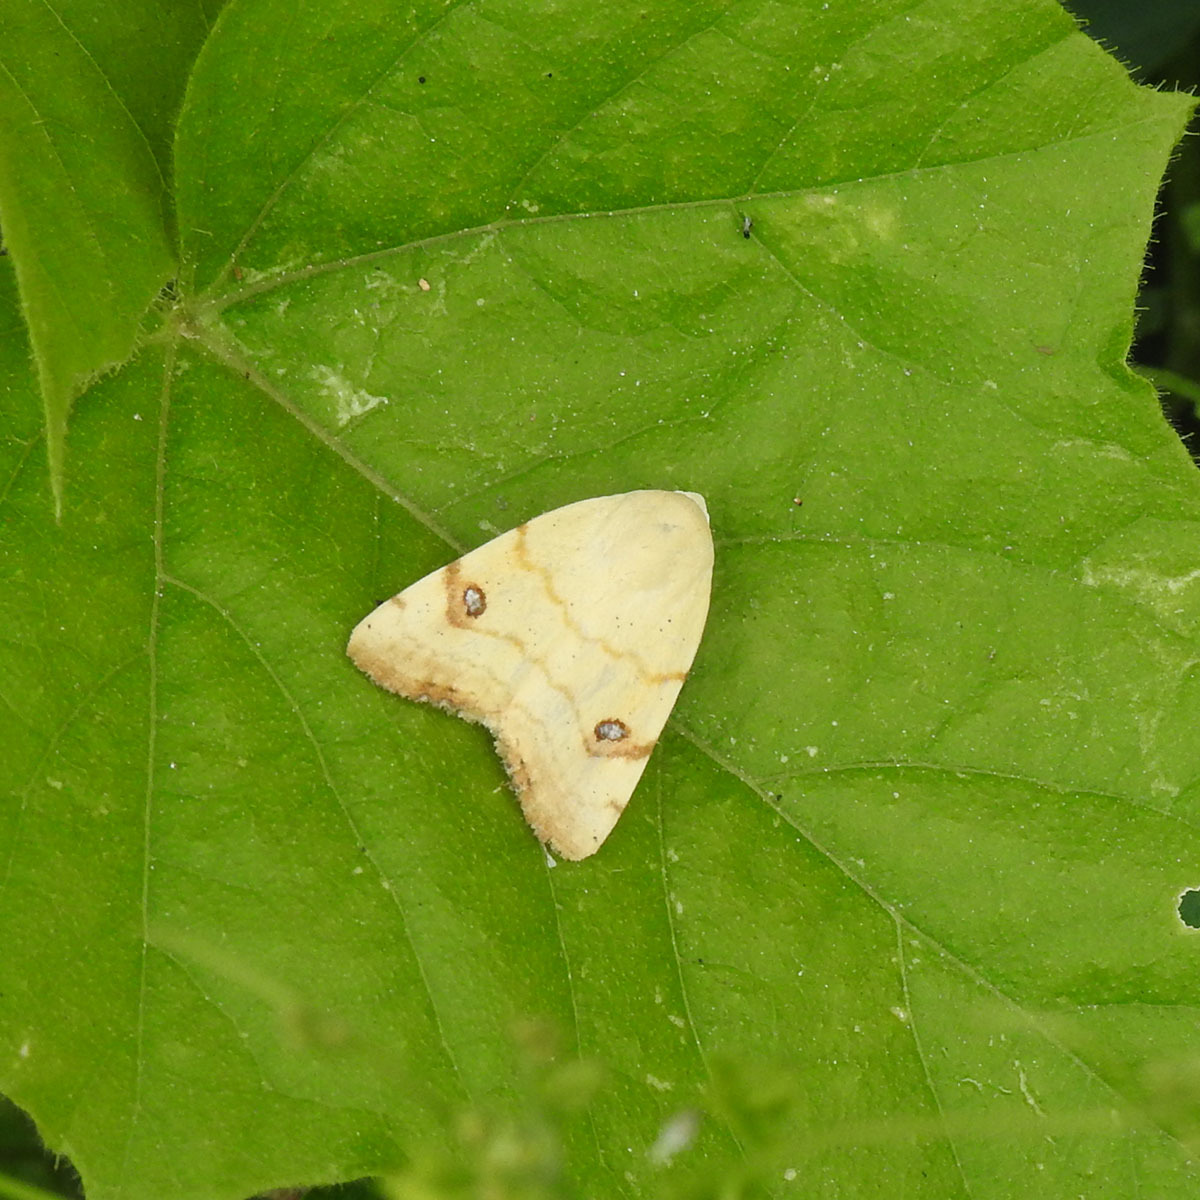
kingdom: Animalia
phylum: Arthropoda
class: Insecta
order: Lepidoptera
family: Nolidae
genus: Xanthodes
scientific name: Xanthodes albago
